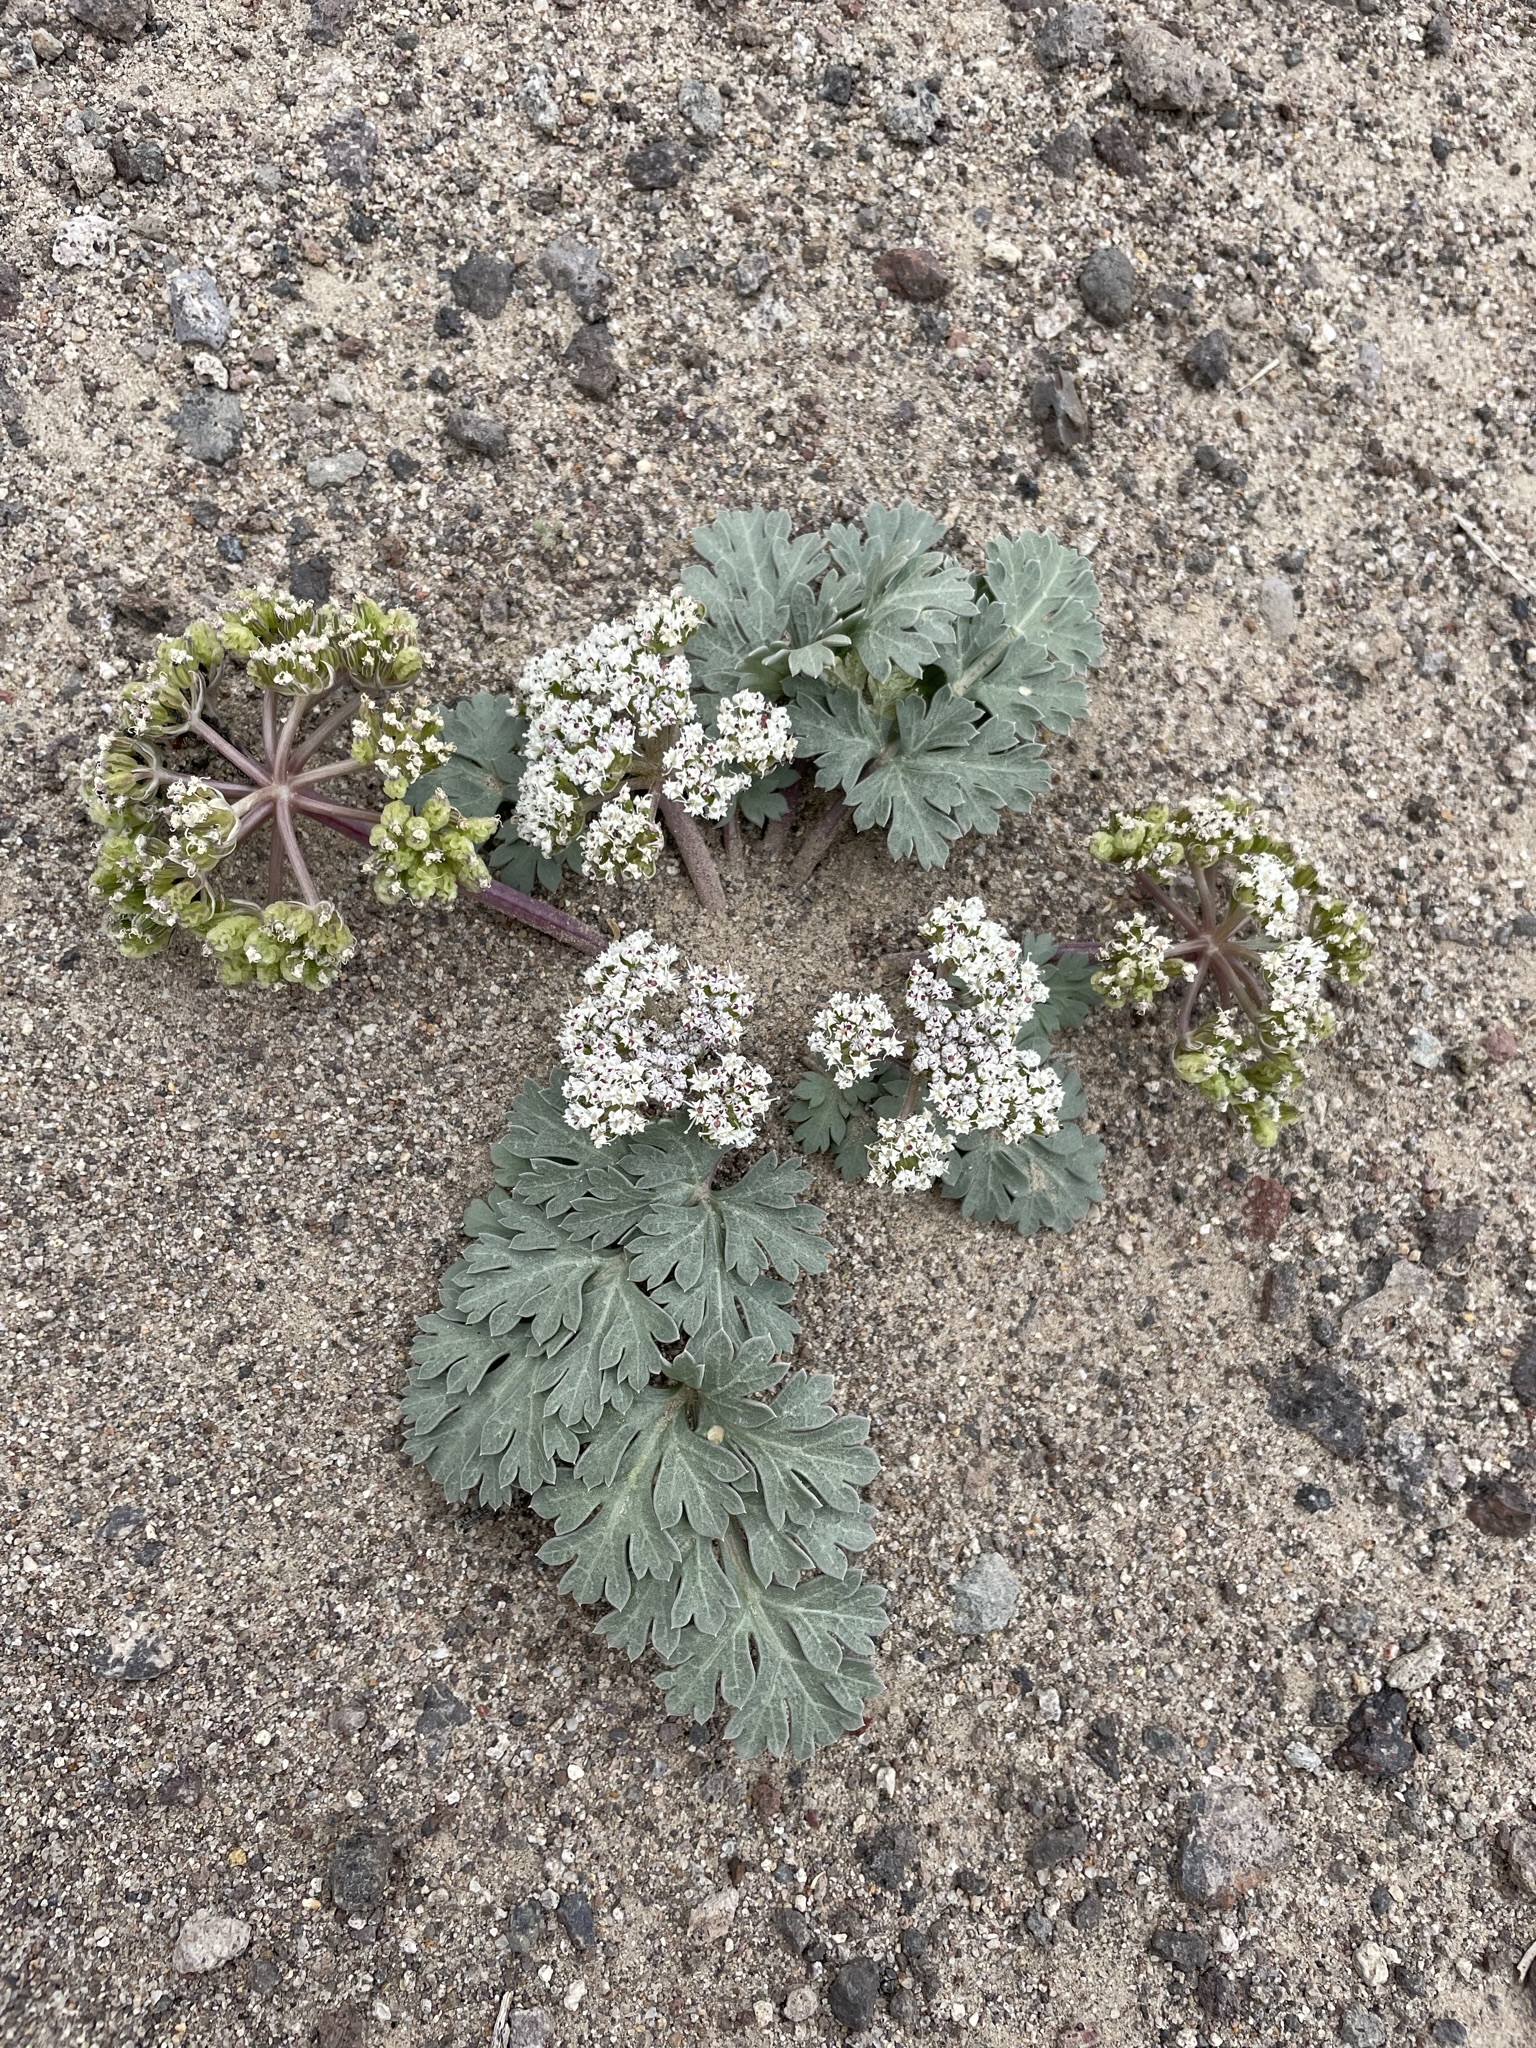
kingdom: Plantae
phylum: Tracheophyta
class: Magnoliopsida
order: Apiales
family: Apiaceae
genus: Rhysopterus
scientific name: Rhysopterus plurijugus
